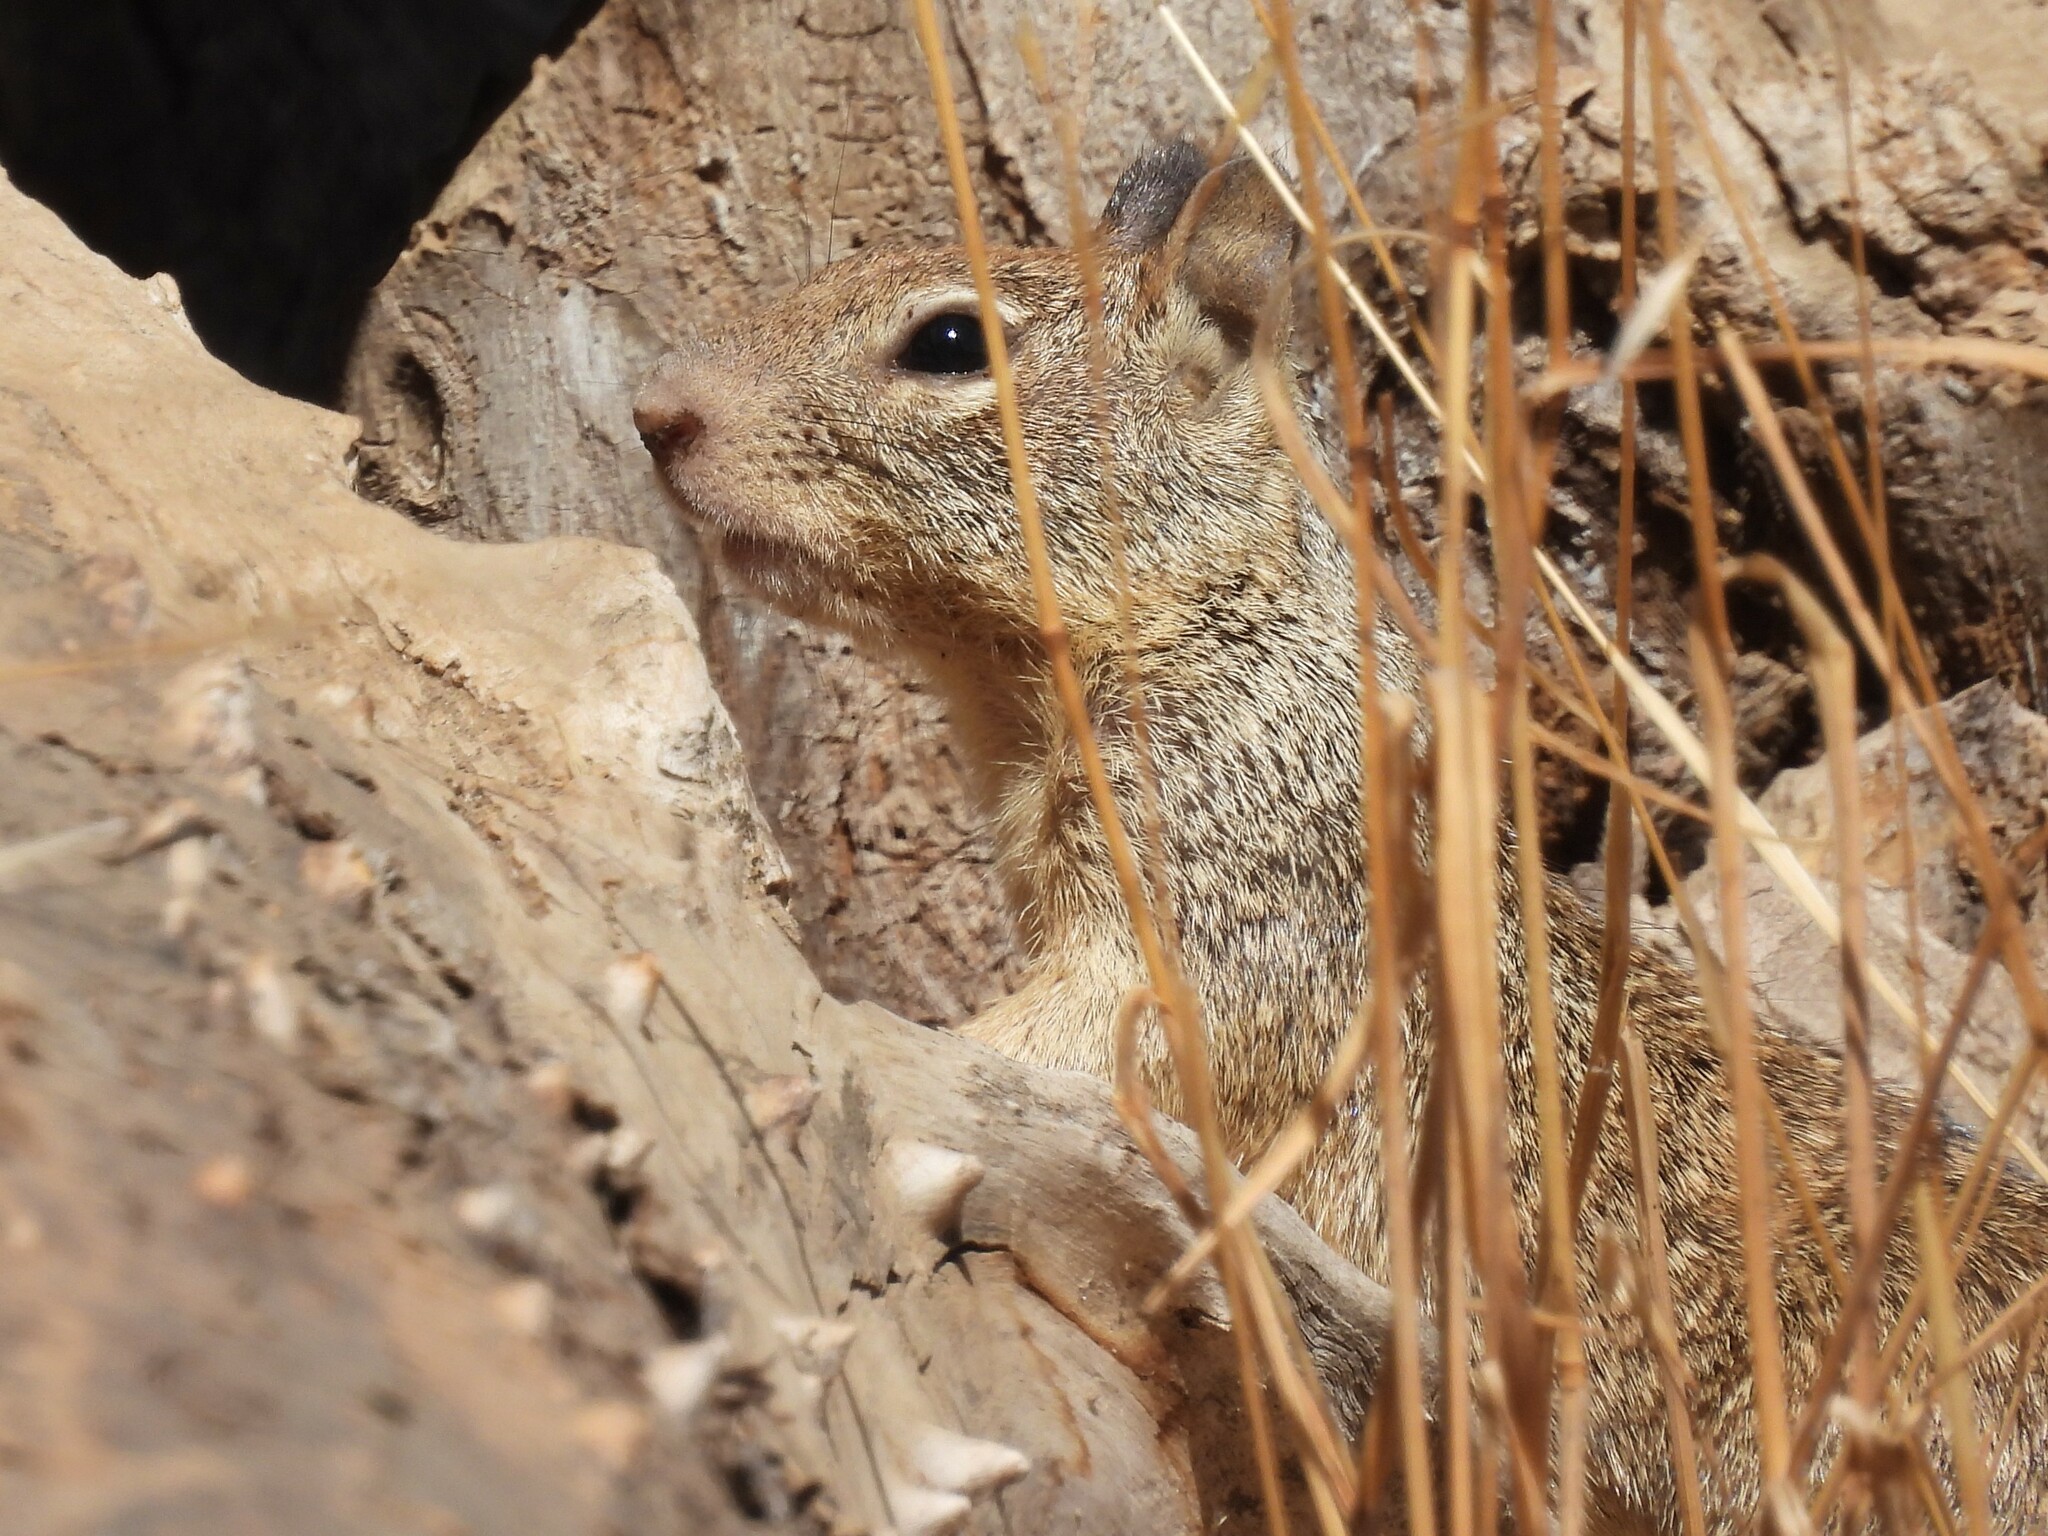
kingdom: Animalia
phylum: Chordata
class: Mammalia
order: Rodentia
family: Sciuridae
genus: Otospermophilus
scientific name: Otospermophilus beecheyi
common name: California ground squirrel
